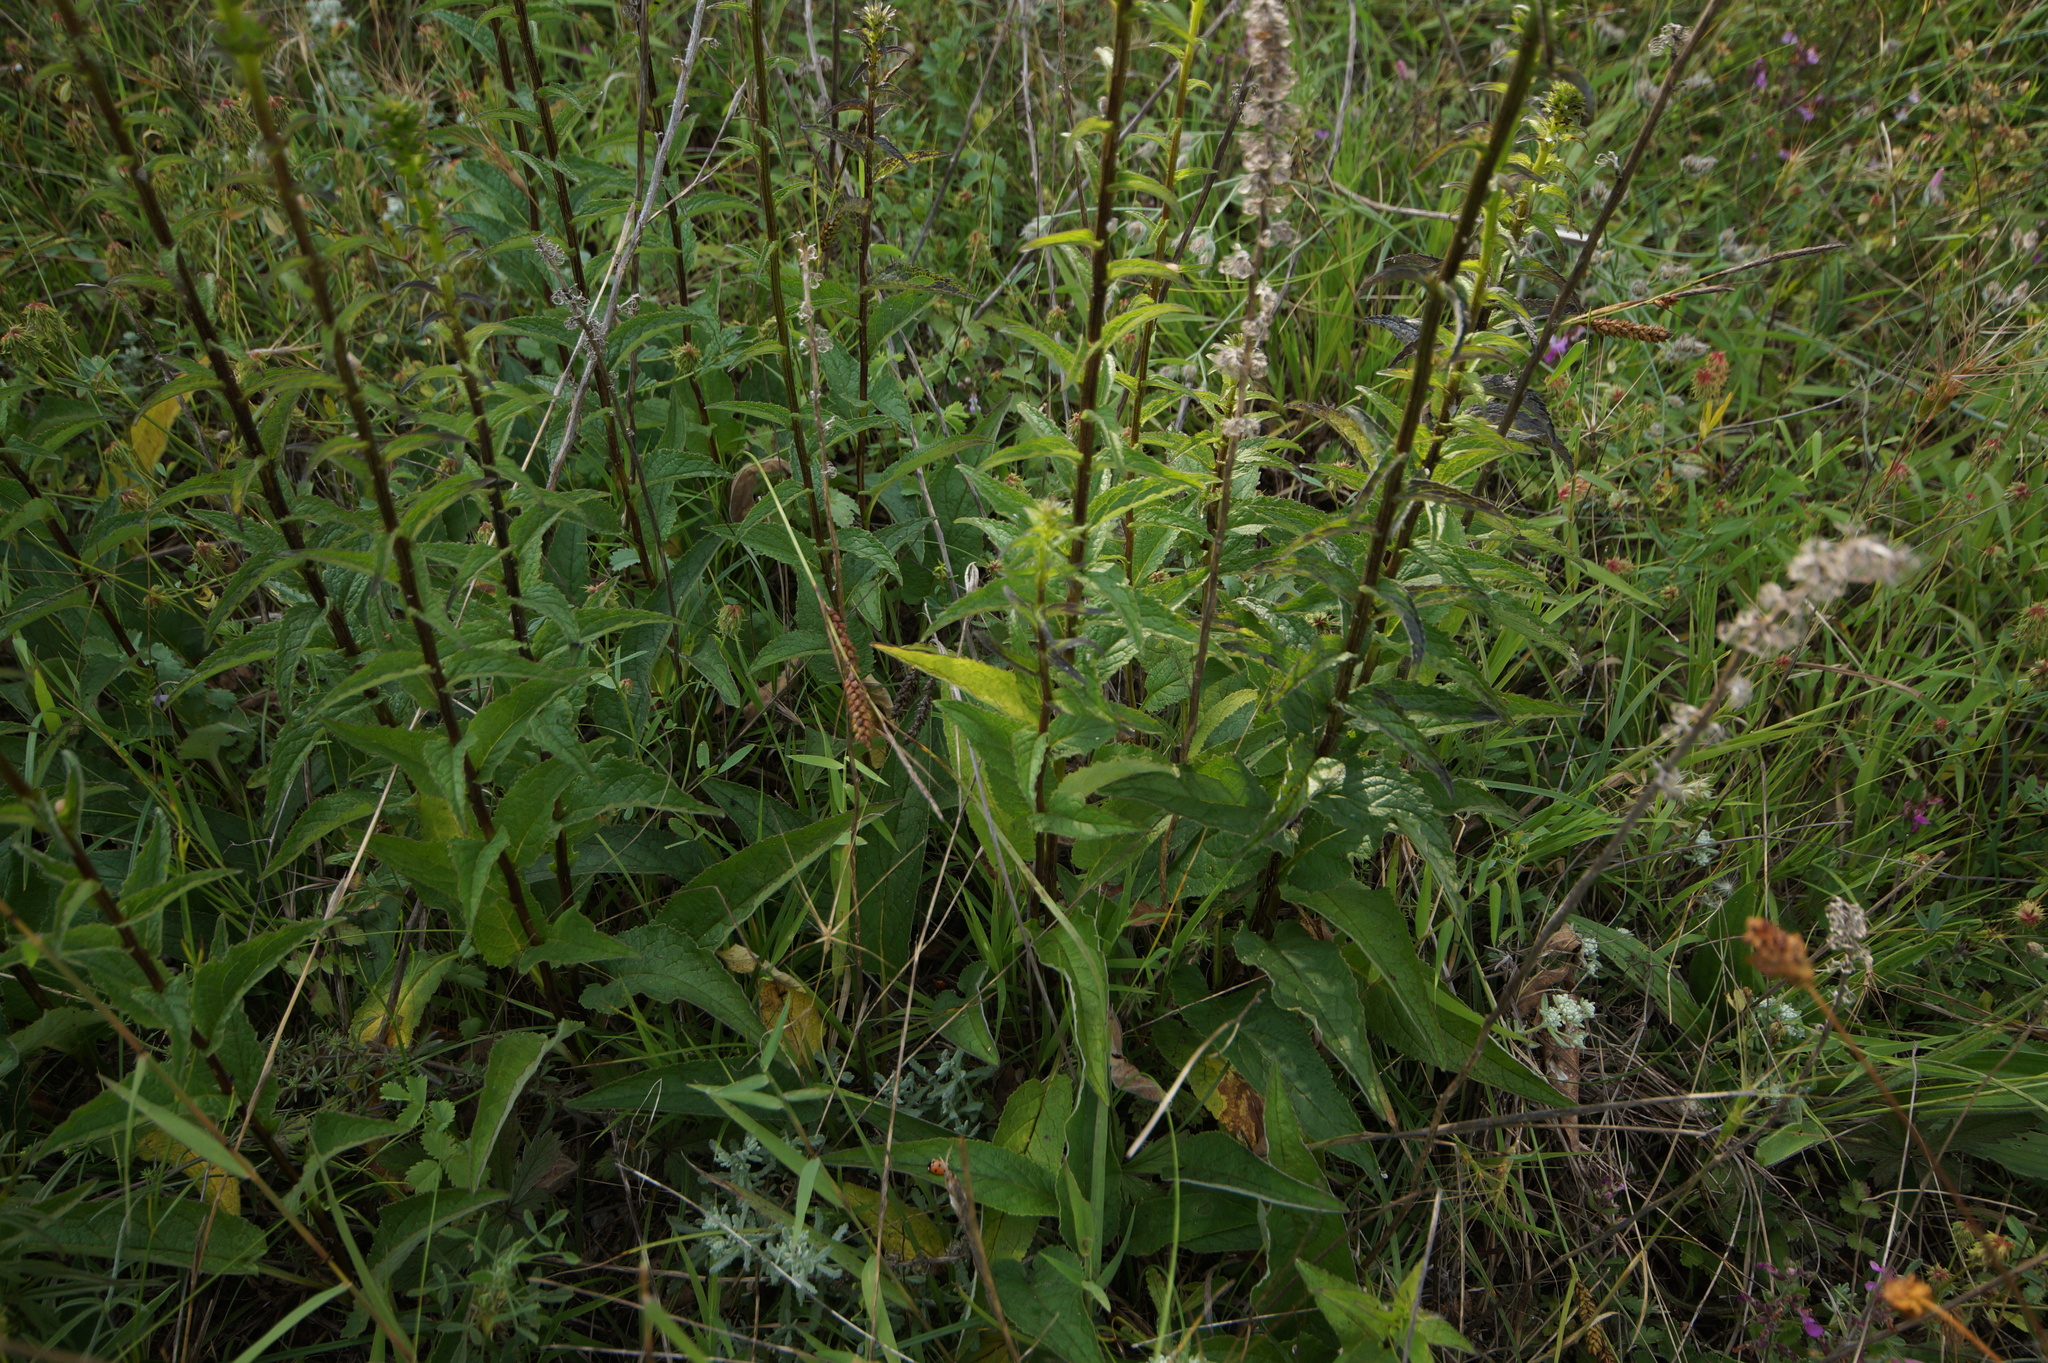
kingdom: Plantae
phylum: Tracheophyta
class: Magnoliopsida
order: Asterales
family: Campanulaceae
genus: Campanula
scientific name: Campanula bononiensis
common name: Pale bellflower
